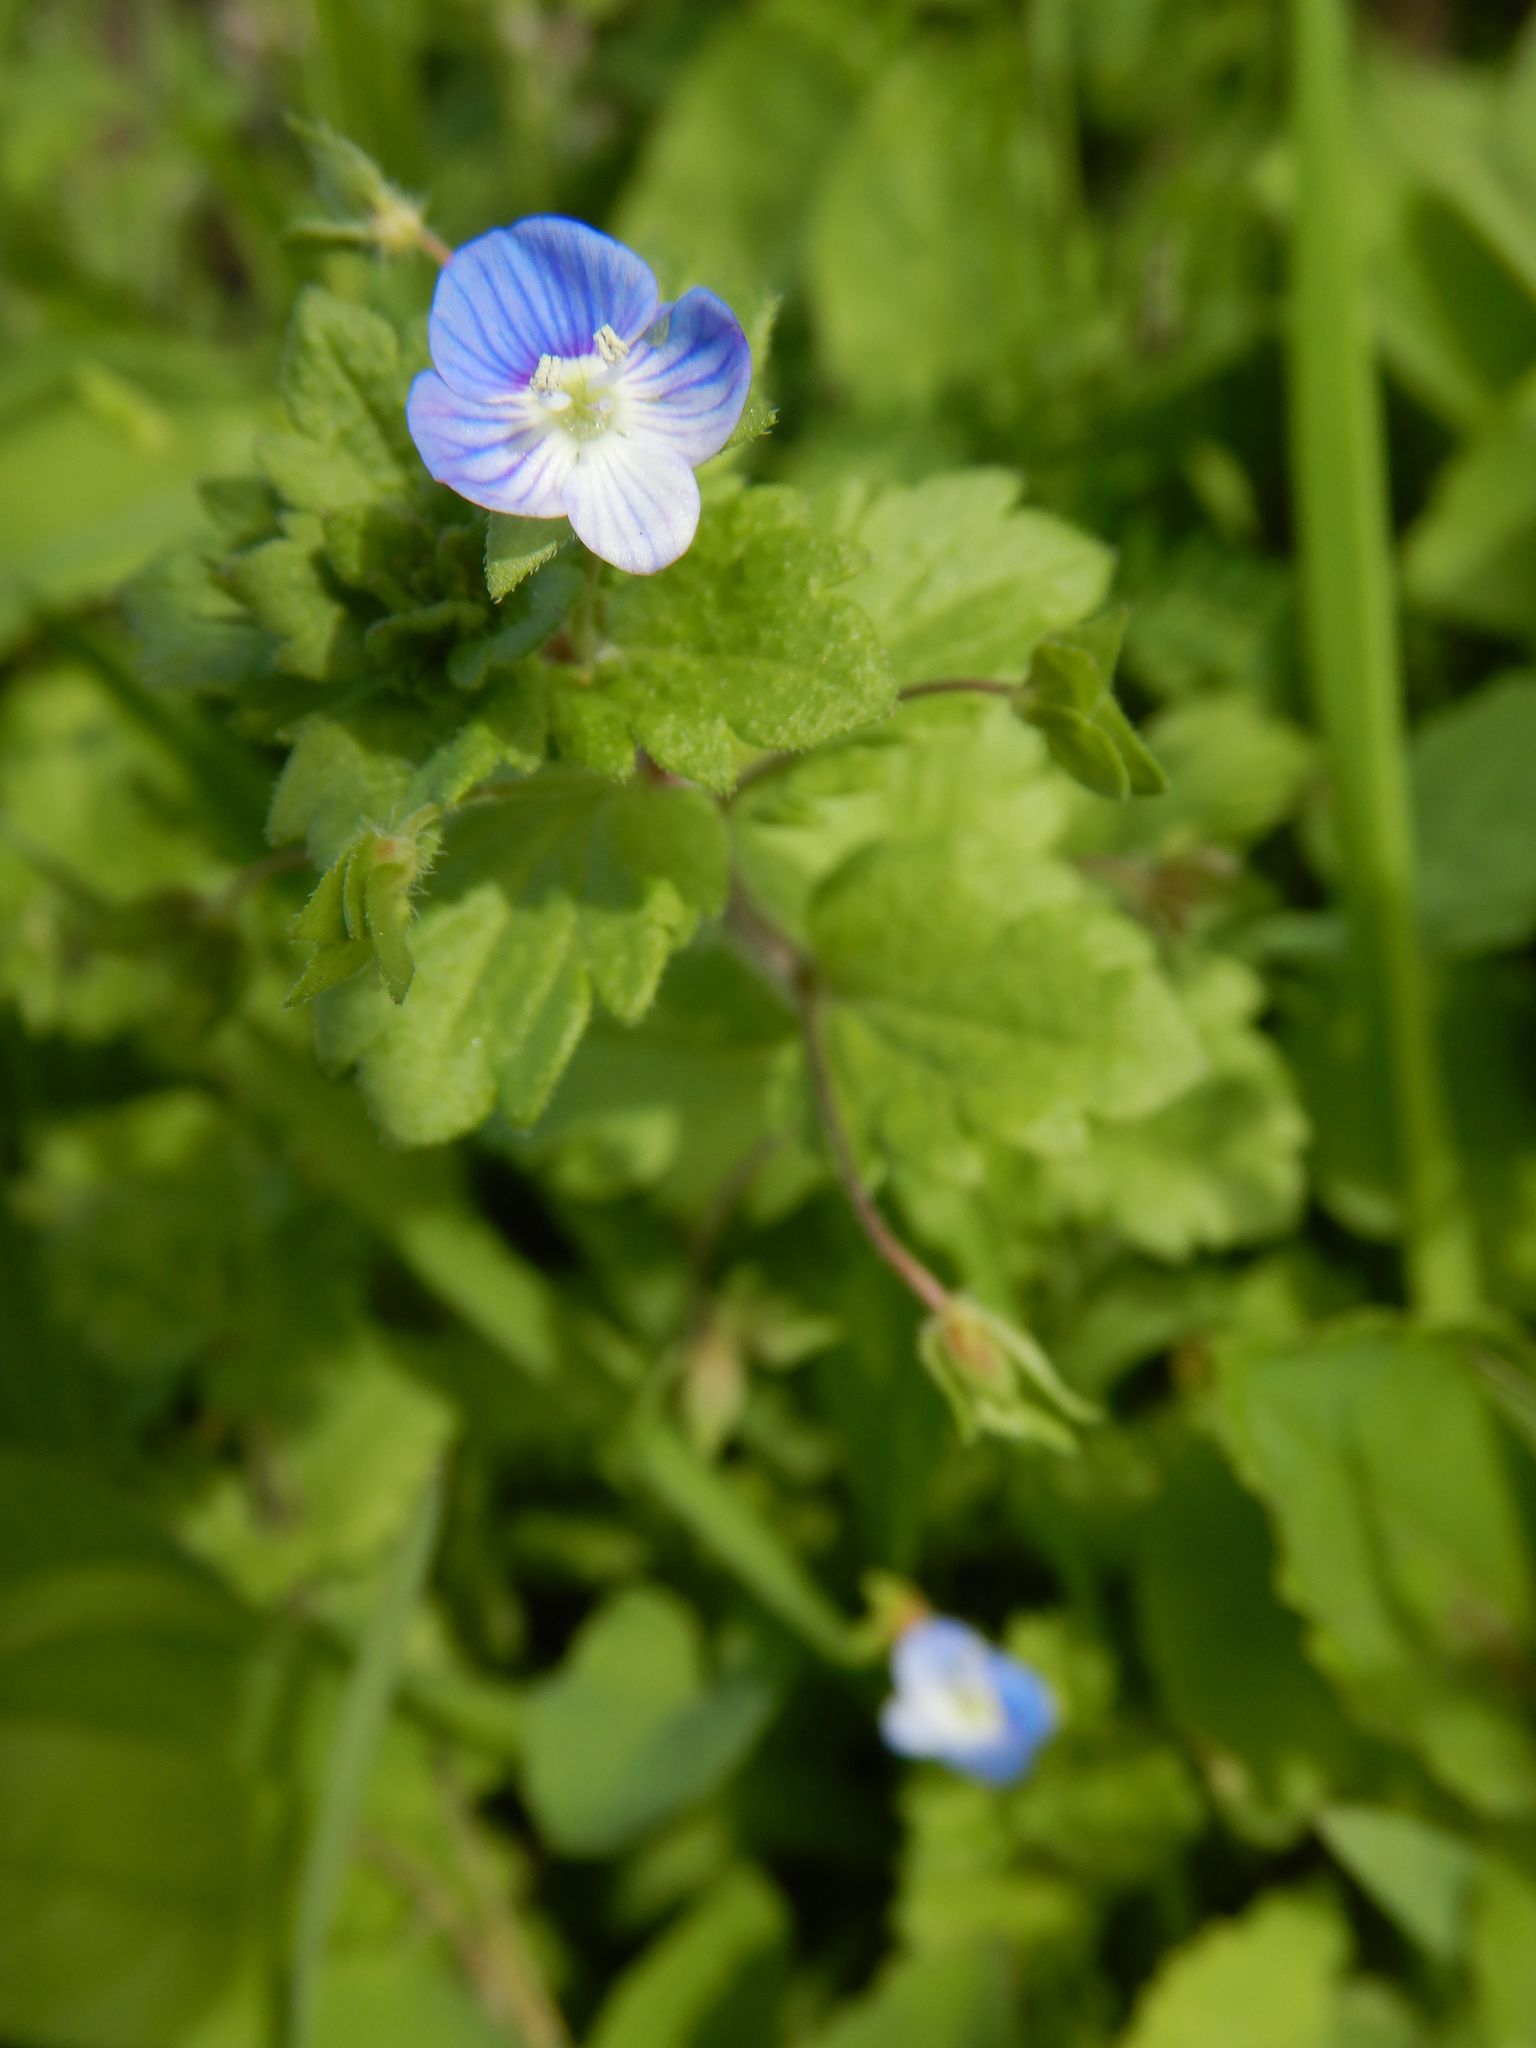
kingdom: Plantae
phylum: Tracheophyta
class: Magnoliopsida
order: Lamiales
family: Plantaginaceae
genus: Veronica
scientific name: Veronica persica
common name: Common field-speedwell
